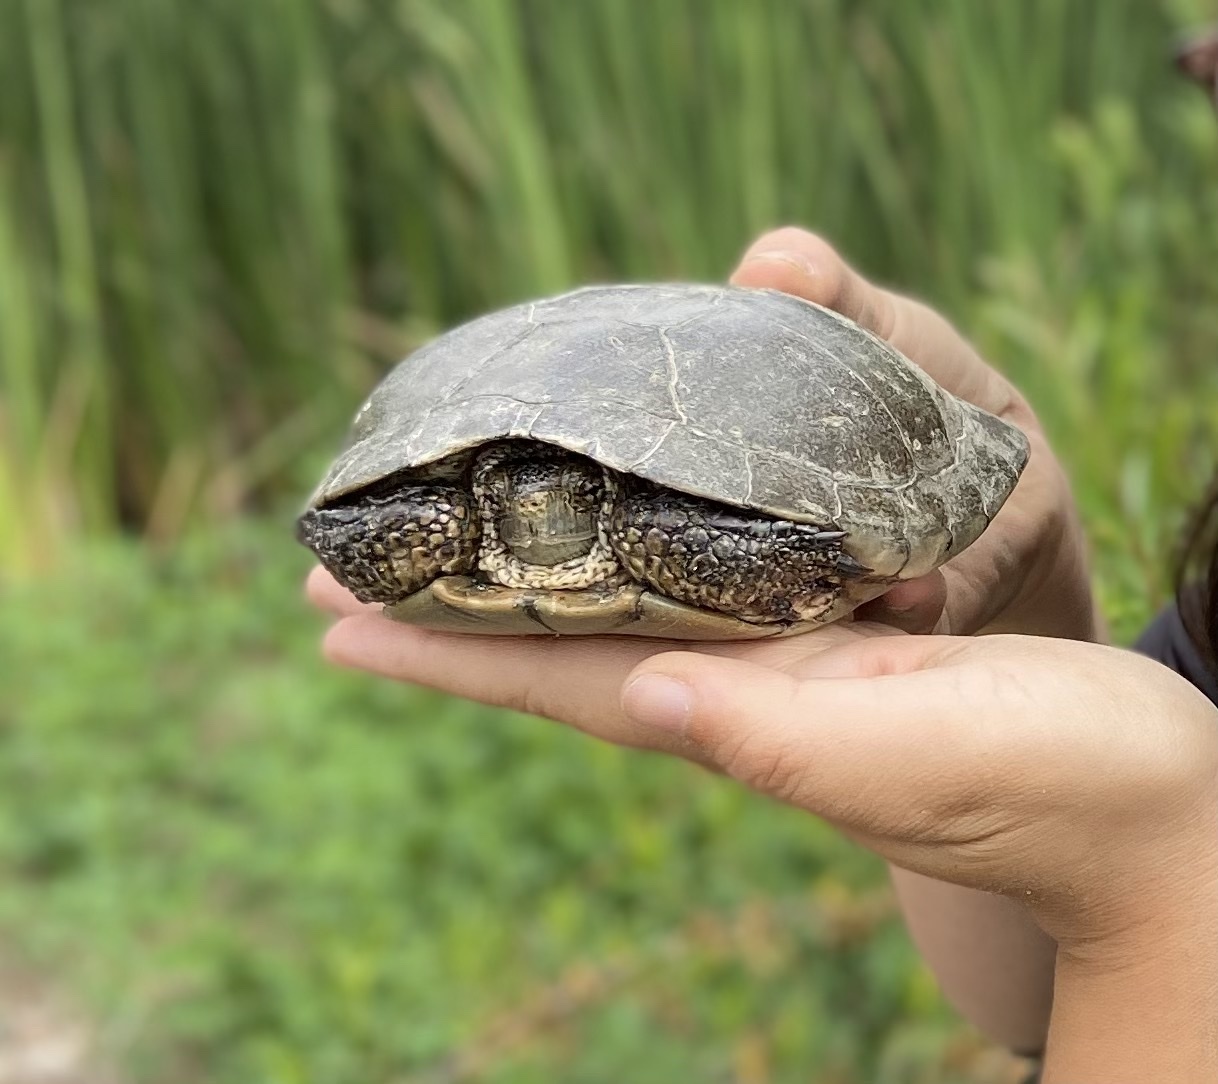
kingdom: Animalia
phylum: Chordata
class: Testudines
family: Emydidae
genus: Actinemys
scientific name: Actinemys marmorata
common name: Western pond turtle
